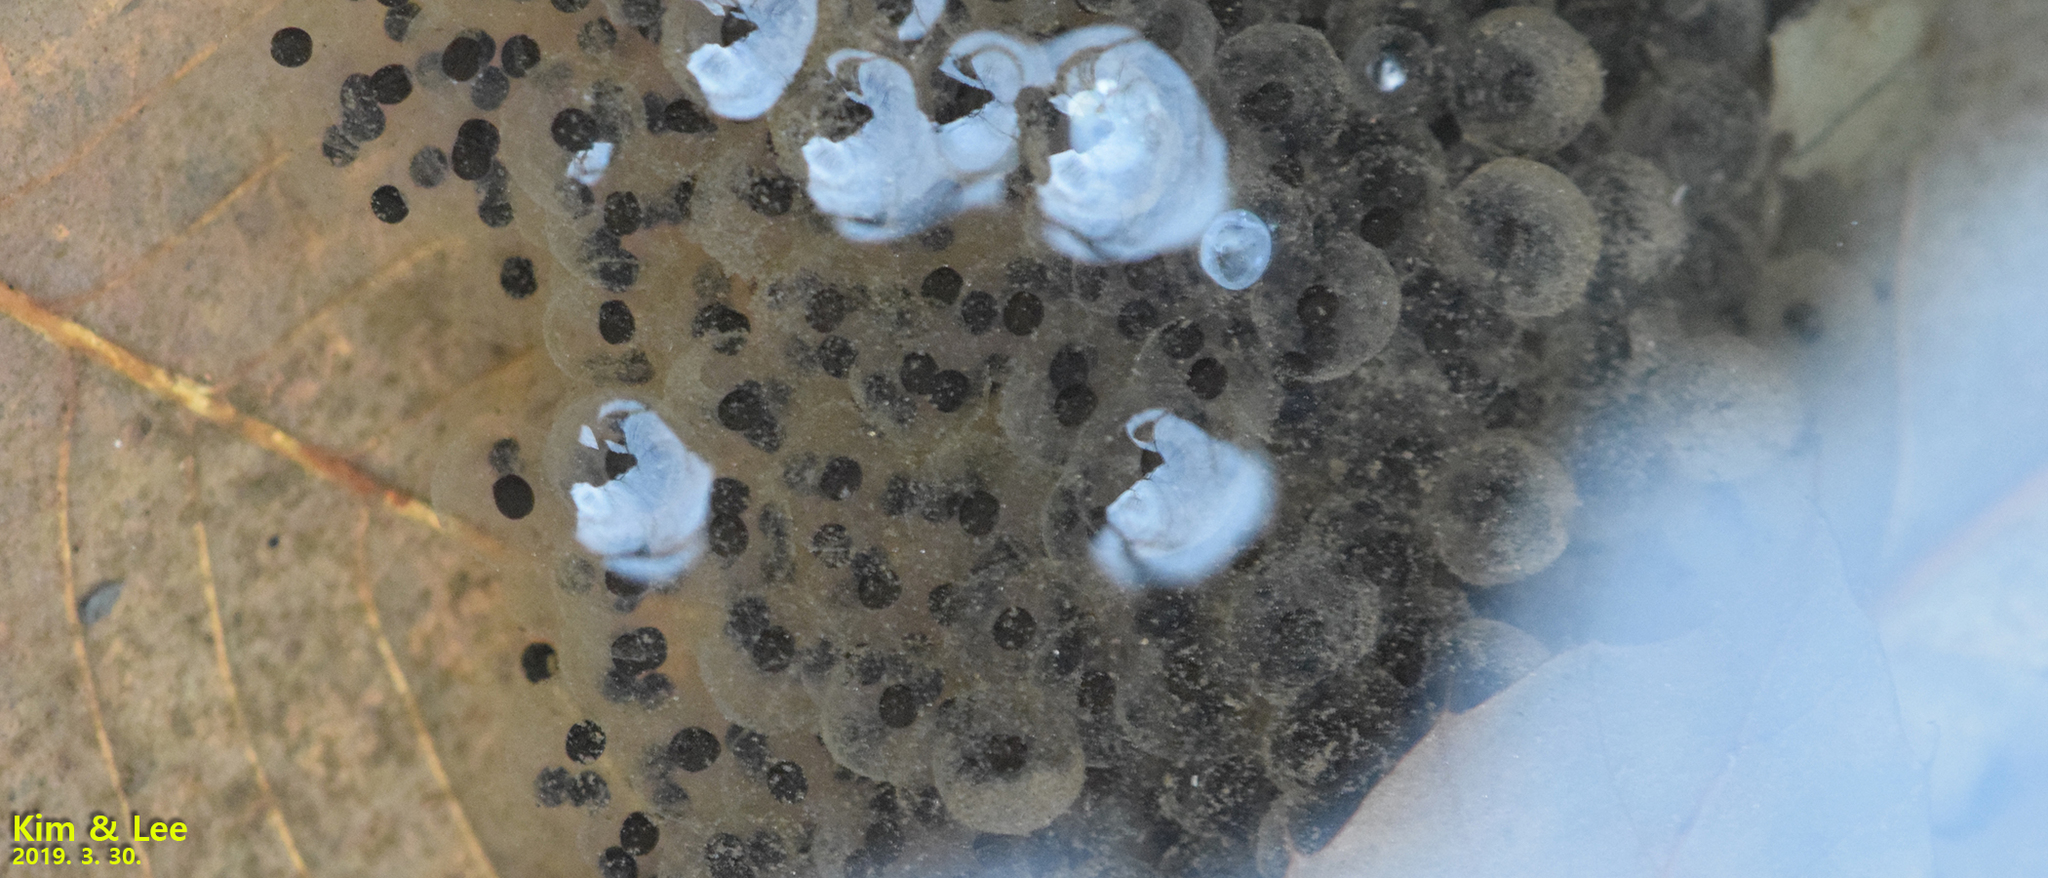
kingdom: Animalia
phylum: Chordata
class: Amphibia
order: Anura
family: Ranidae
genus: Rana
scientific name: Rana huanrenensis
